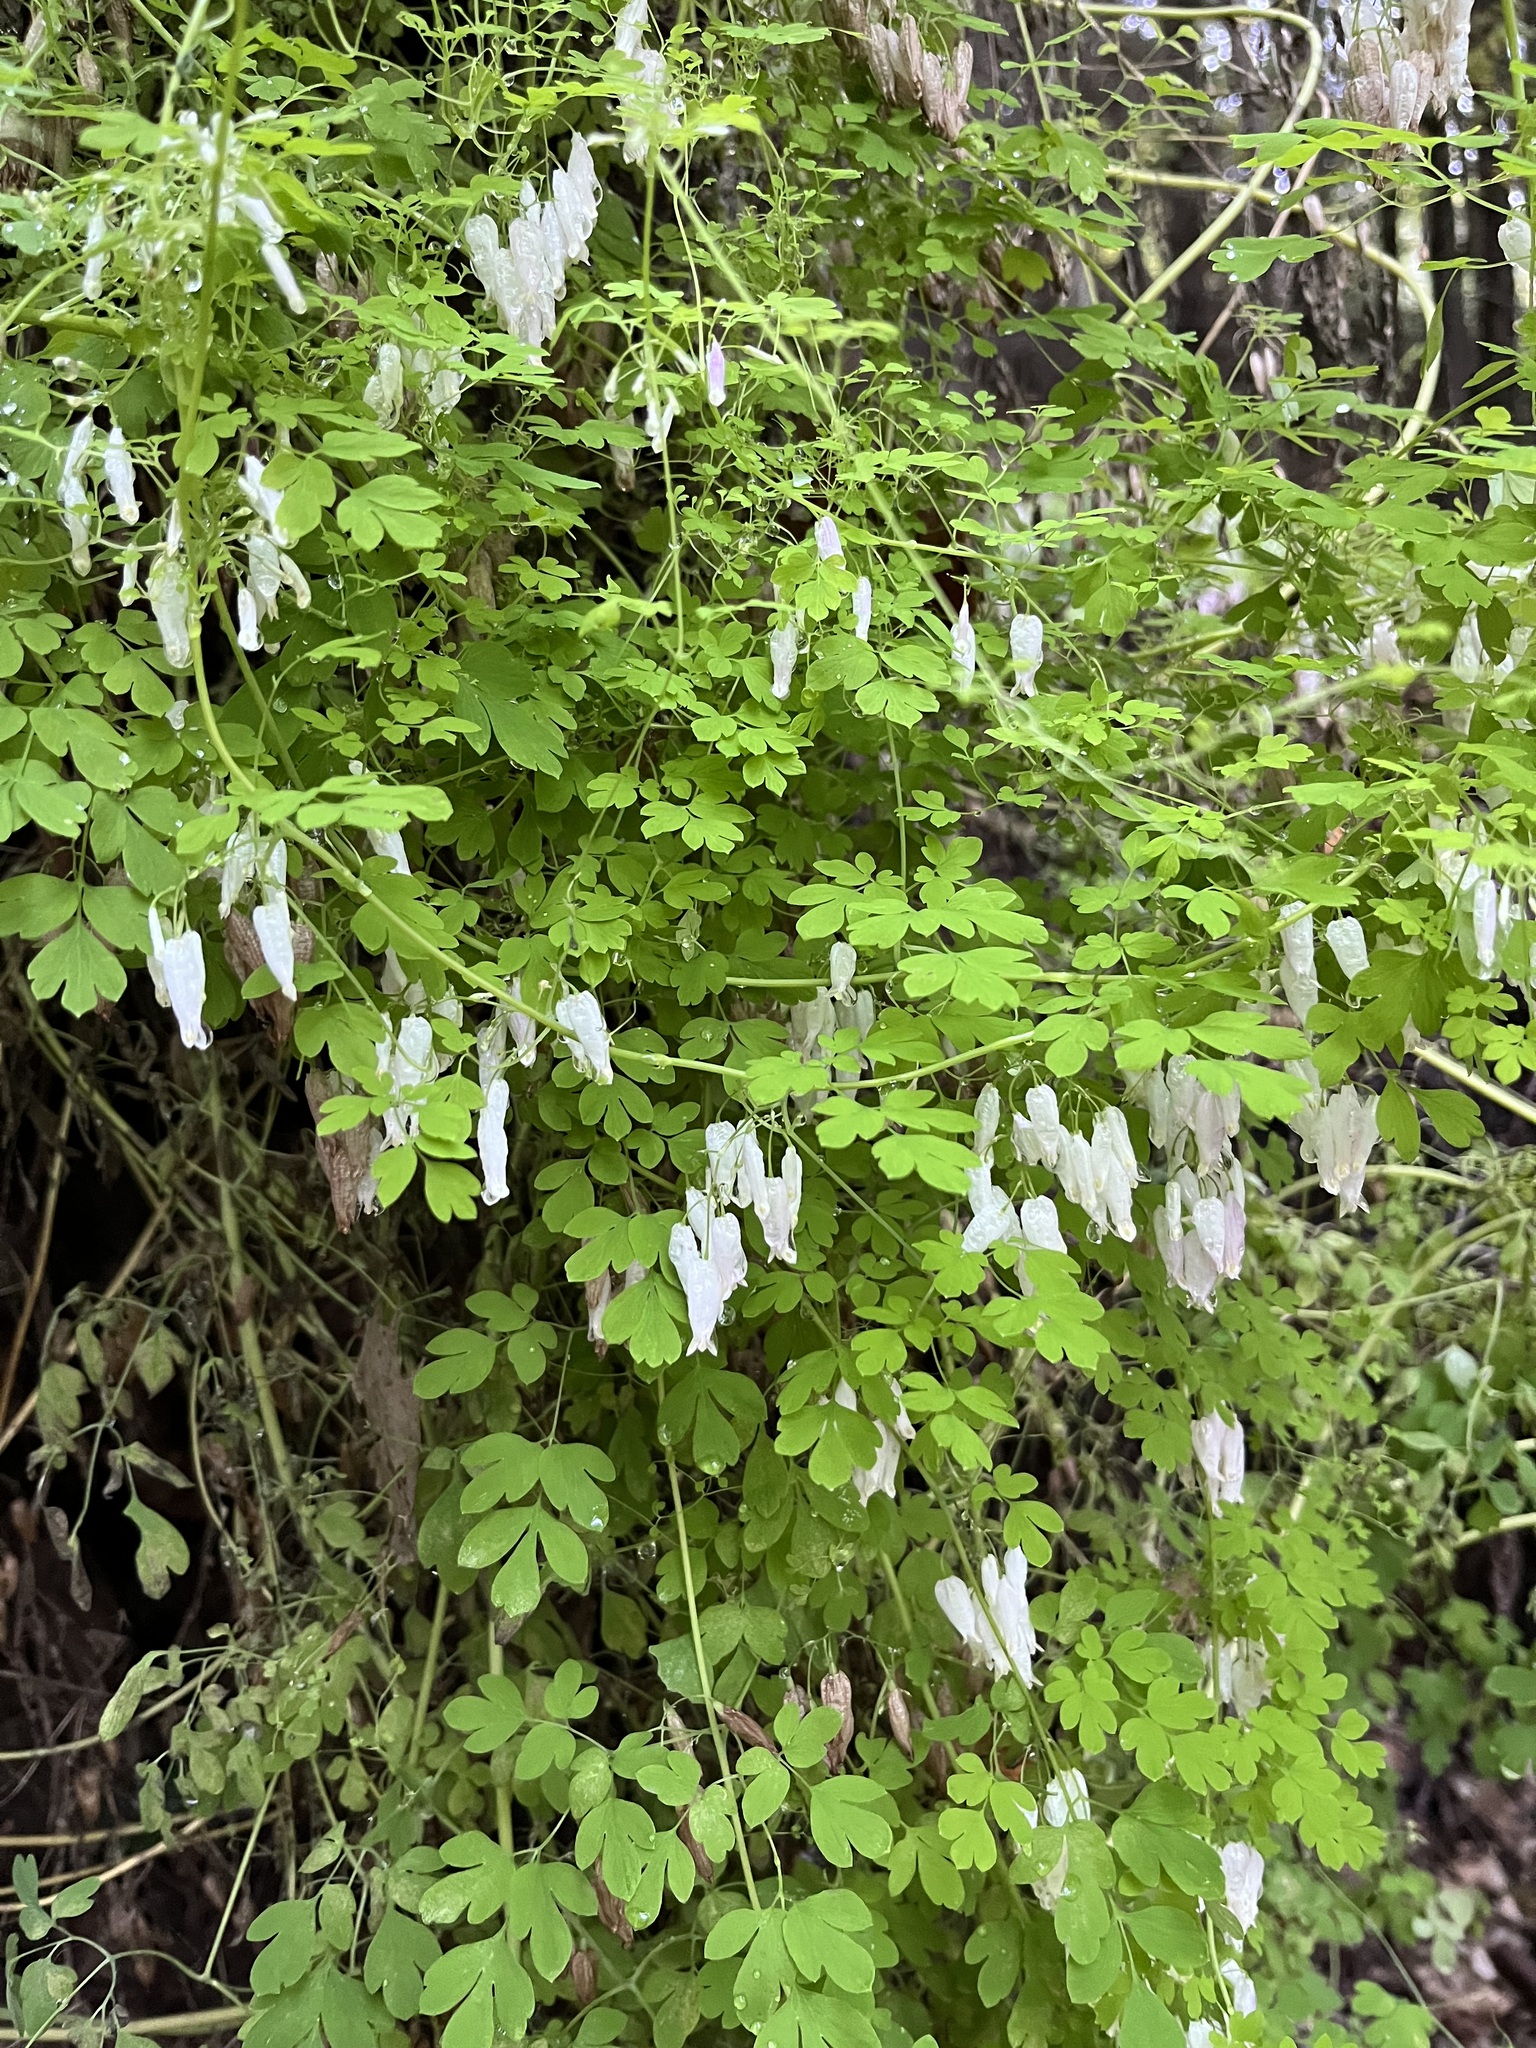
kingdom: Plantae
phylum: Tracheophyta
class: Magnoliopsida
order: Ranunculales
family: Papaveraceae
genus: Adlumia
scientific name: Adlumia fungosa
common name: Mountain-fringe
